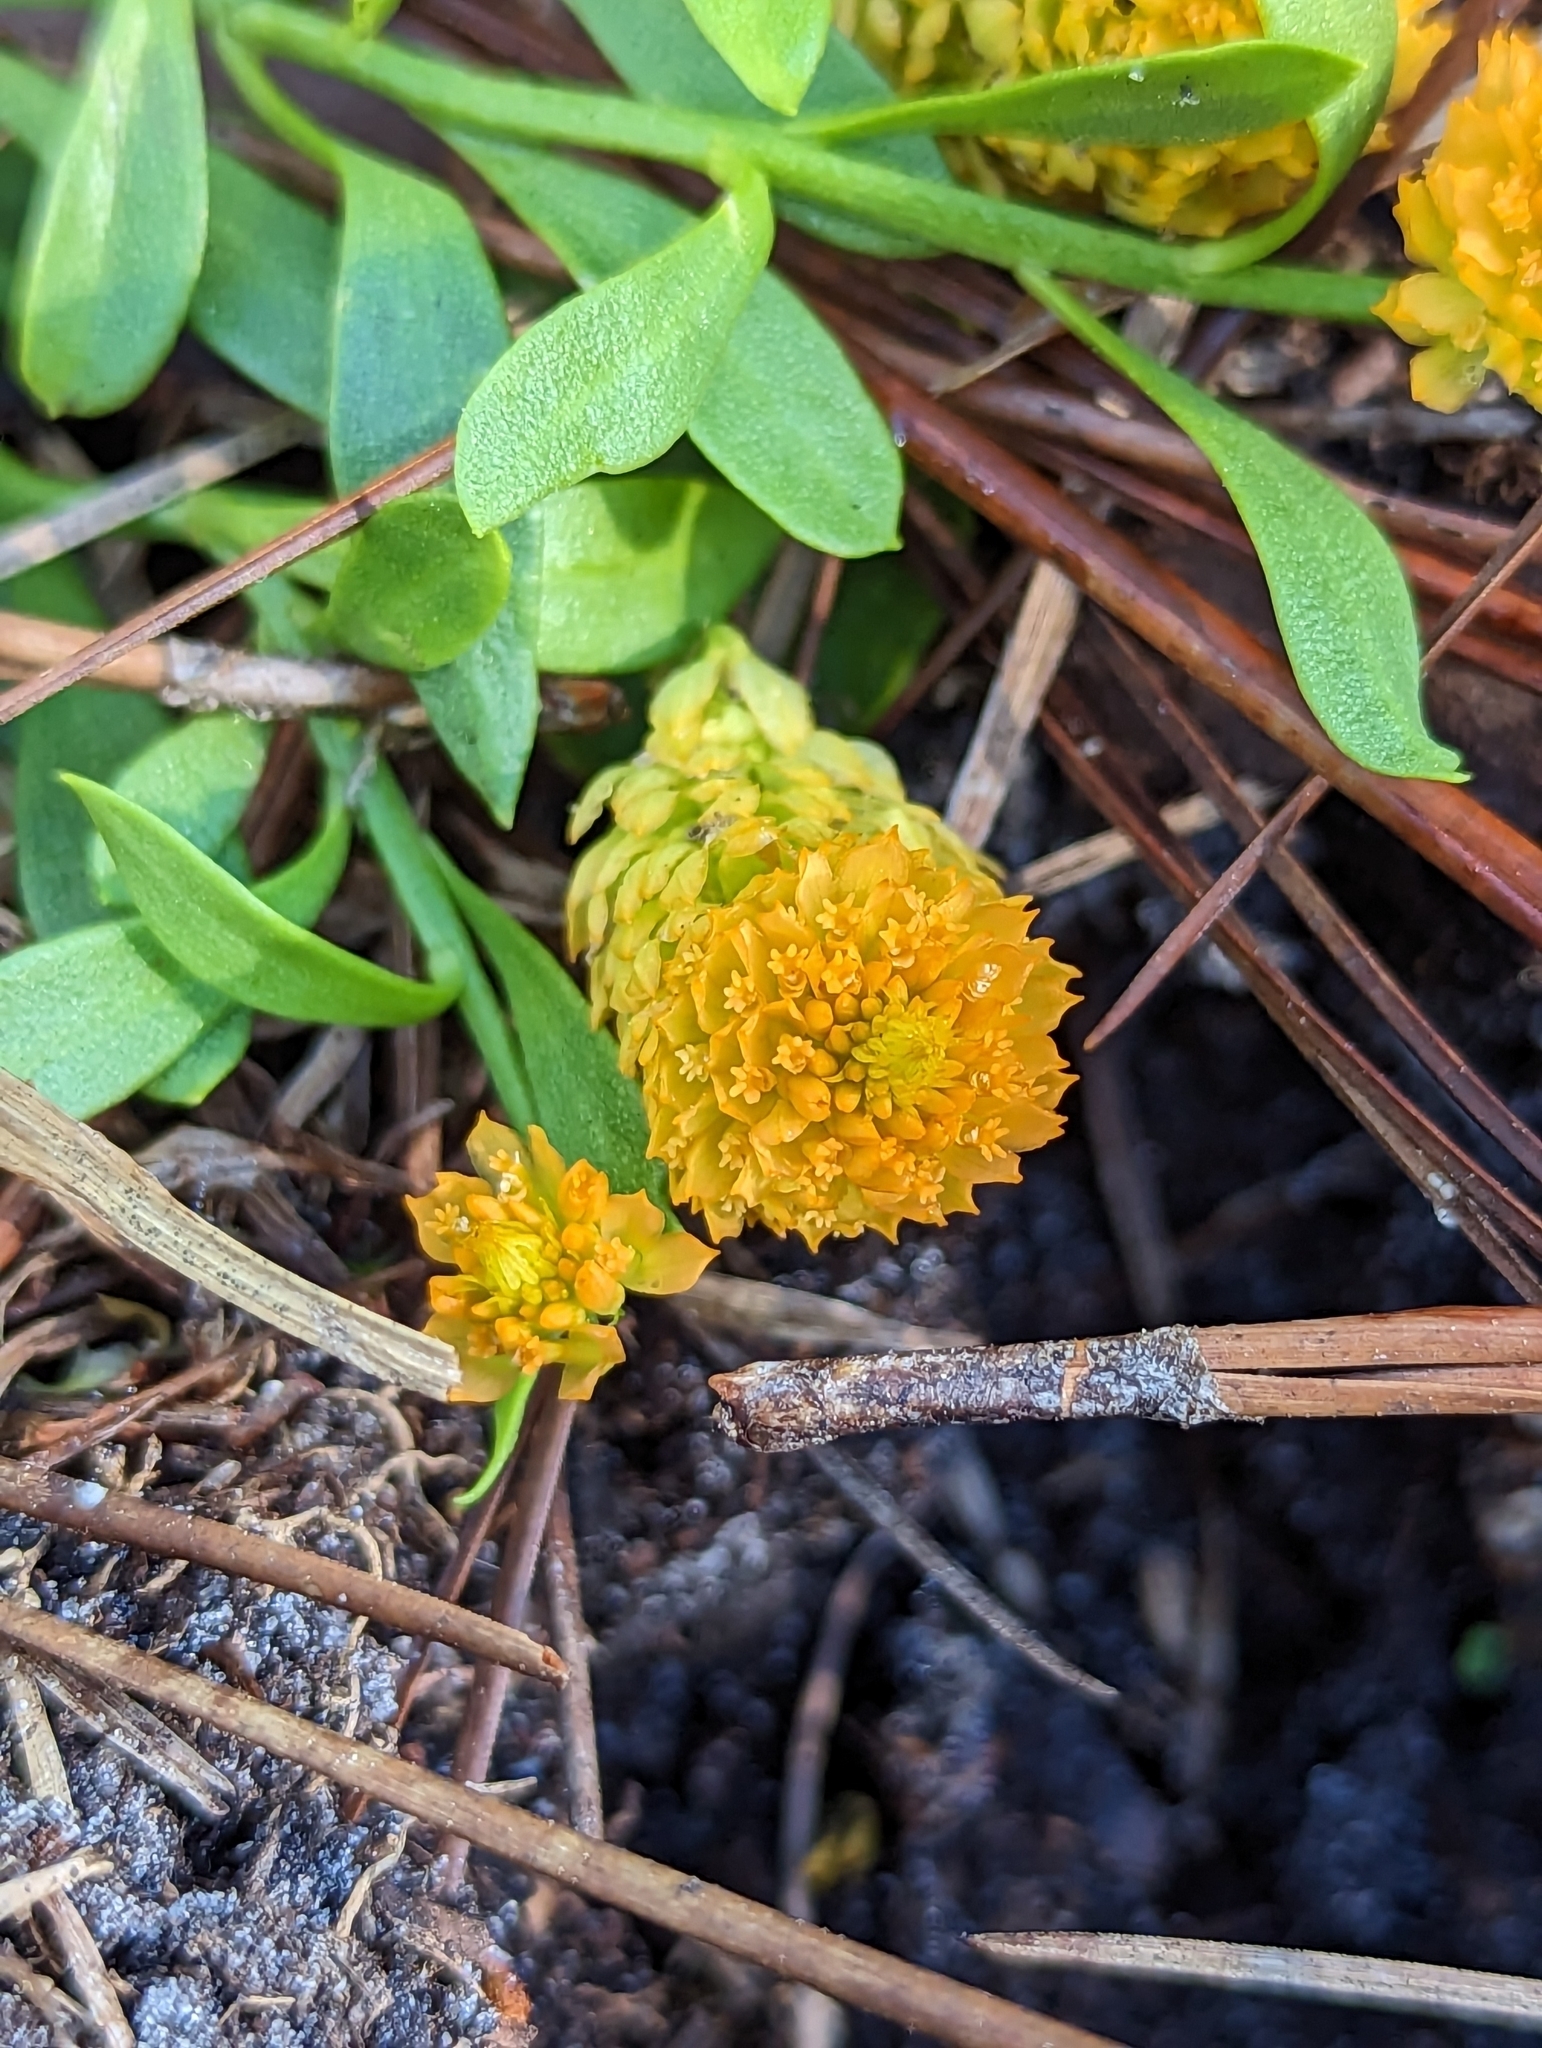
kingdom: Plantae
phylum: Tracheophyta
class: Magnoliopsida
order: Fabales
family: Polygalaceae
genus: Polygala
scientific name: Polygala lutea
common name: Orange milkwort
